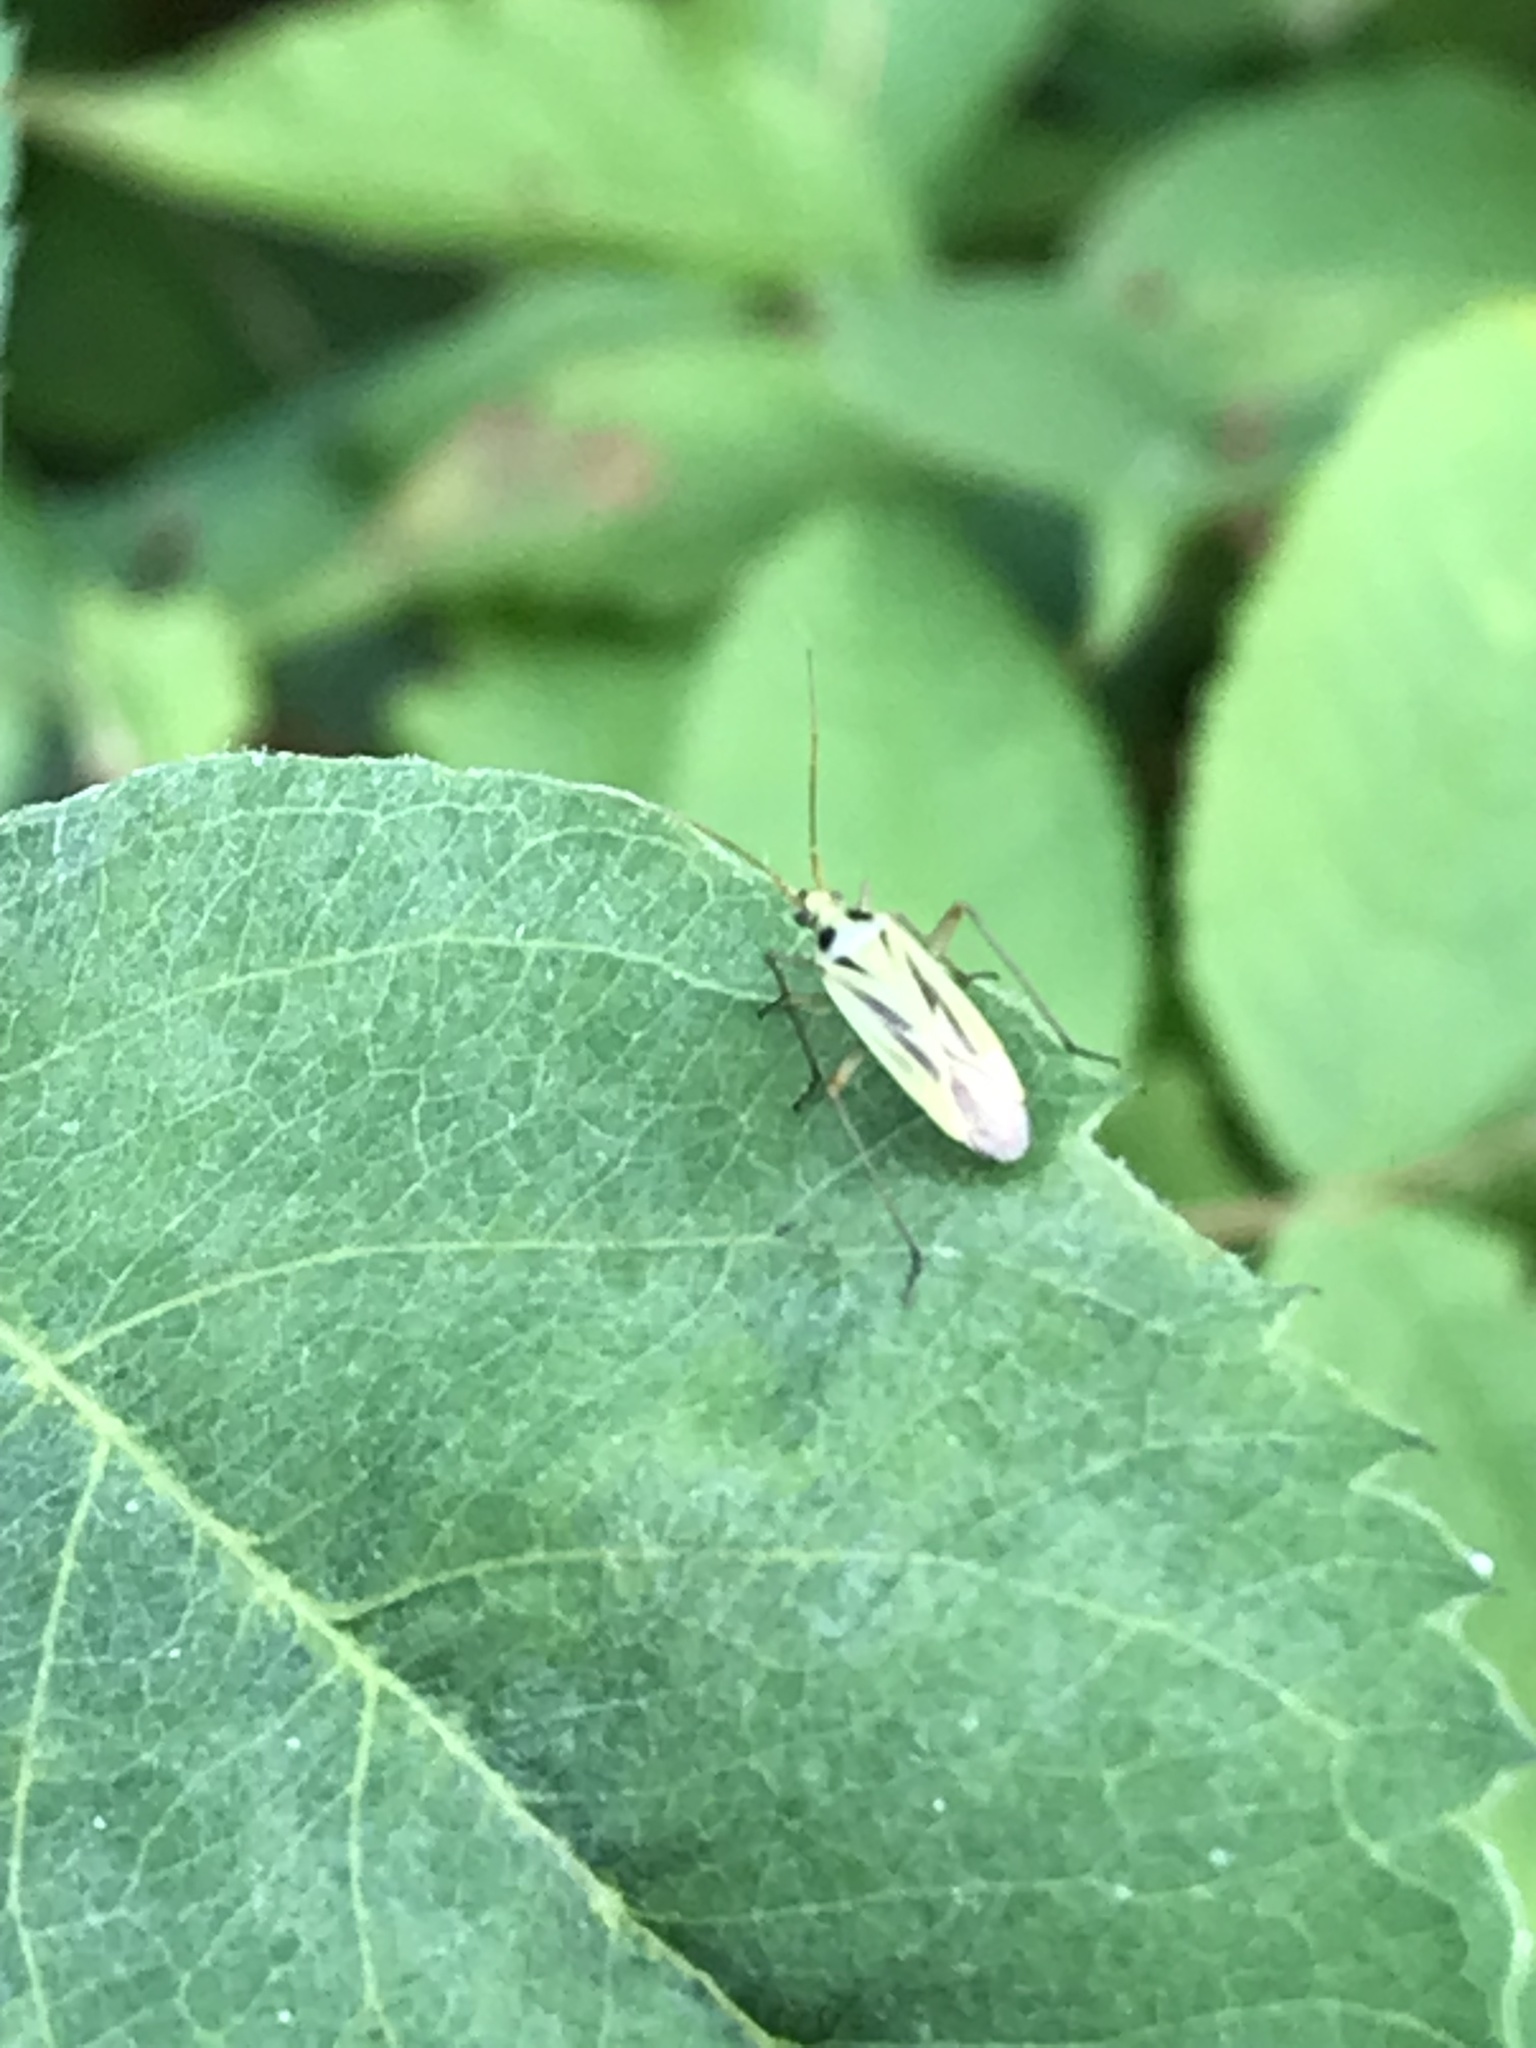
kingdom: Animalia
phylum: Arthropoda
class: Insecta
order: Hemiptera
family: Miridae
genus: Stenotus
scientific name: Stenotus binotatus
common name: Plant bug
